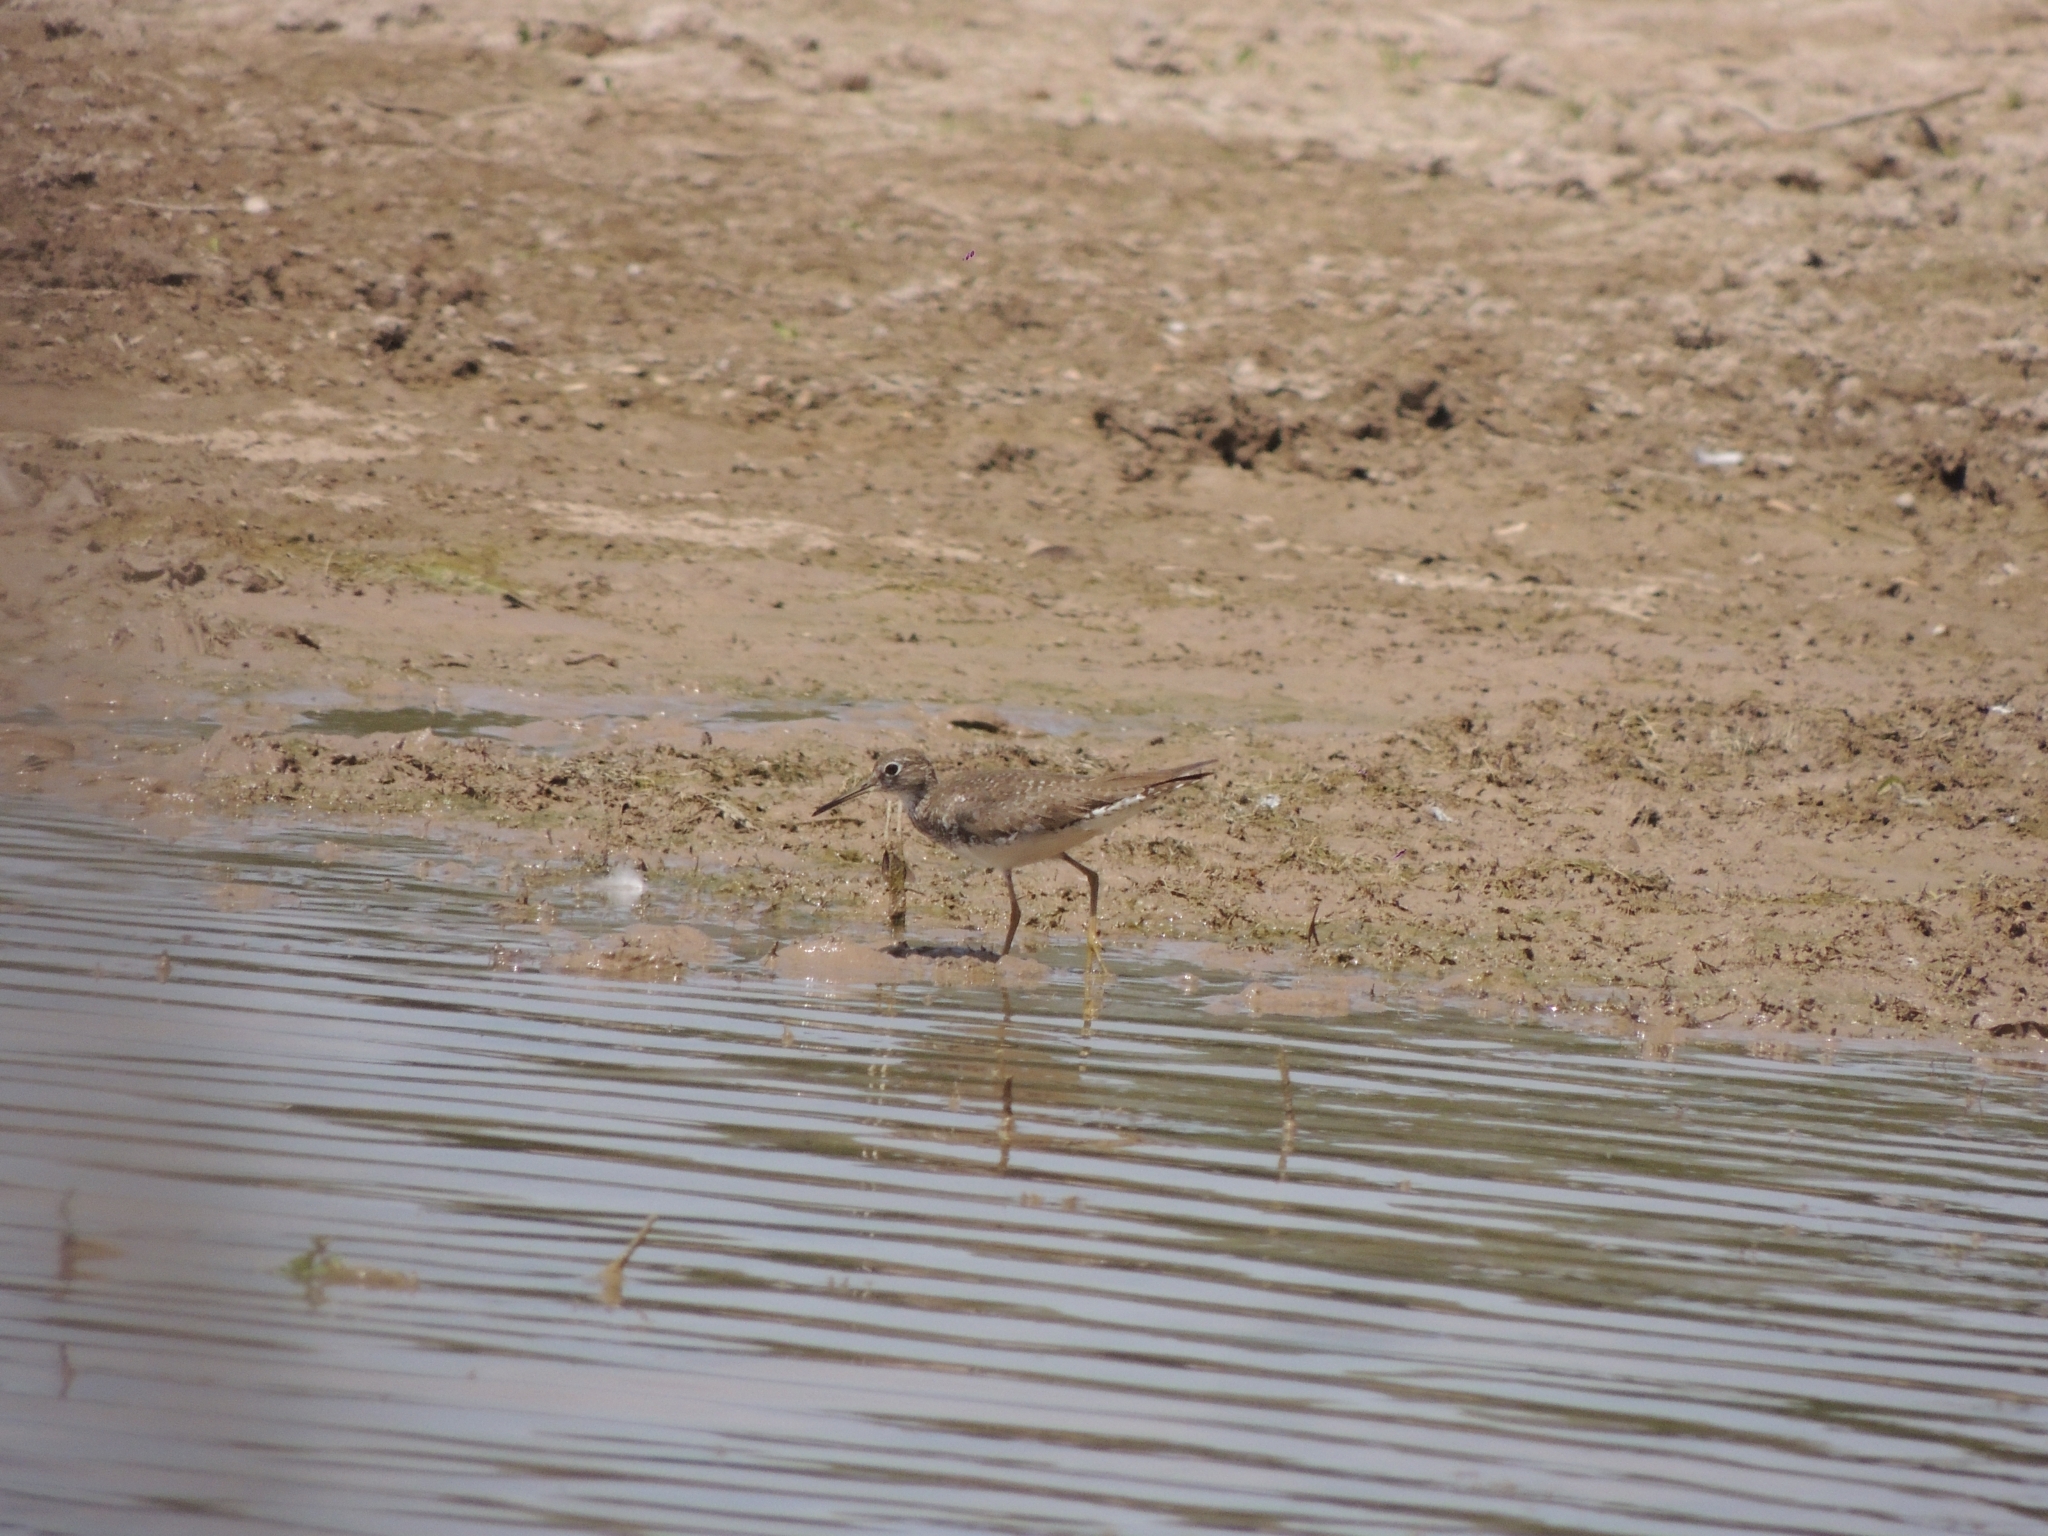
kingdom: Animalia
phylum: Chordata
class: Aves
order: Charadriiformes
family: Scolopacidae
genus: Tringa
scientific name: Tringa solitaria
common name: Solitary sandpiper
